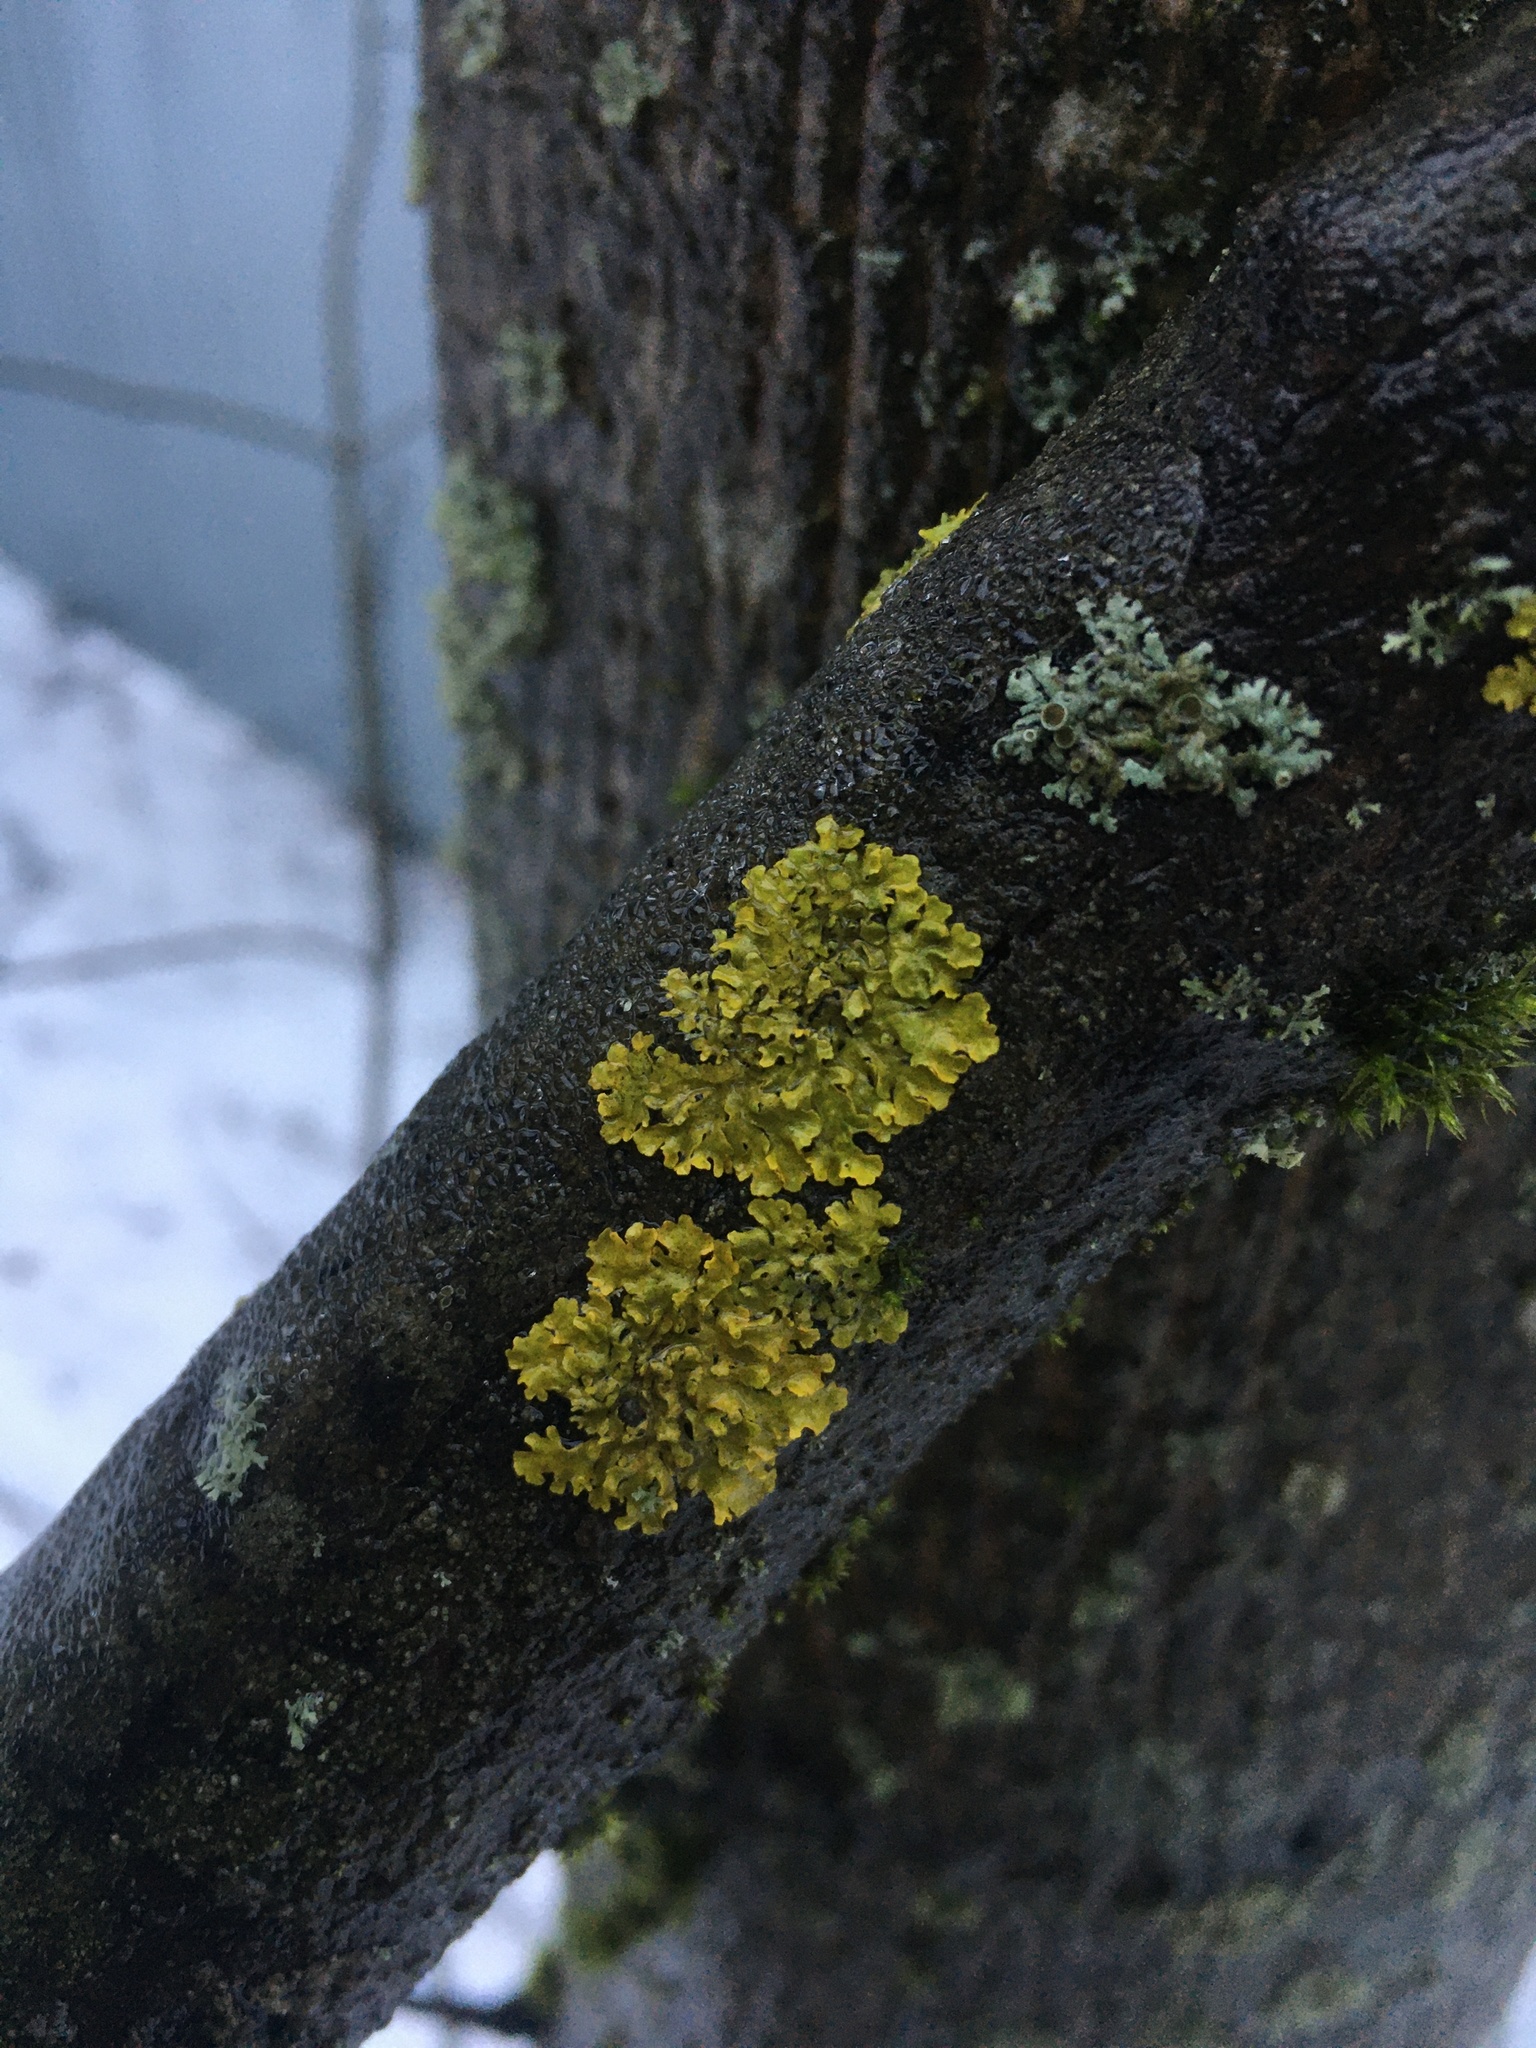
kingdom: Fungi
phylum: Ascomycota
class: Lecanoromycetes
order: Teloschistales
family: Teloschistaceae
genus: Xanthoria
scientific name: Xanthoria parietina
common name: Common orange lichen
